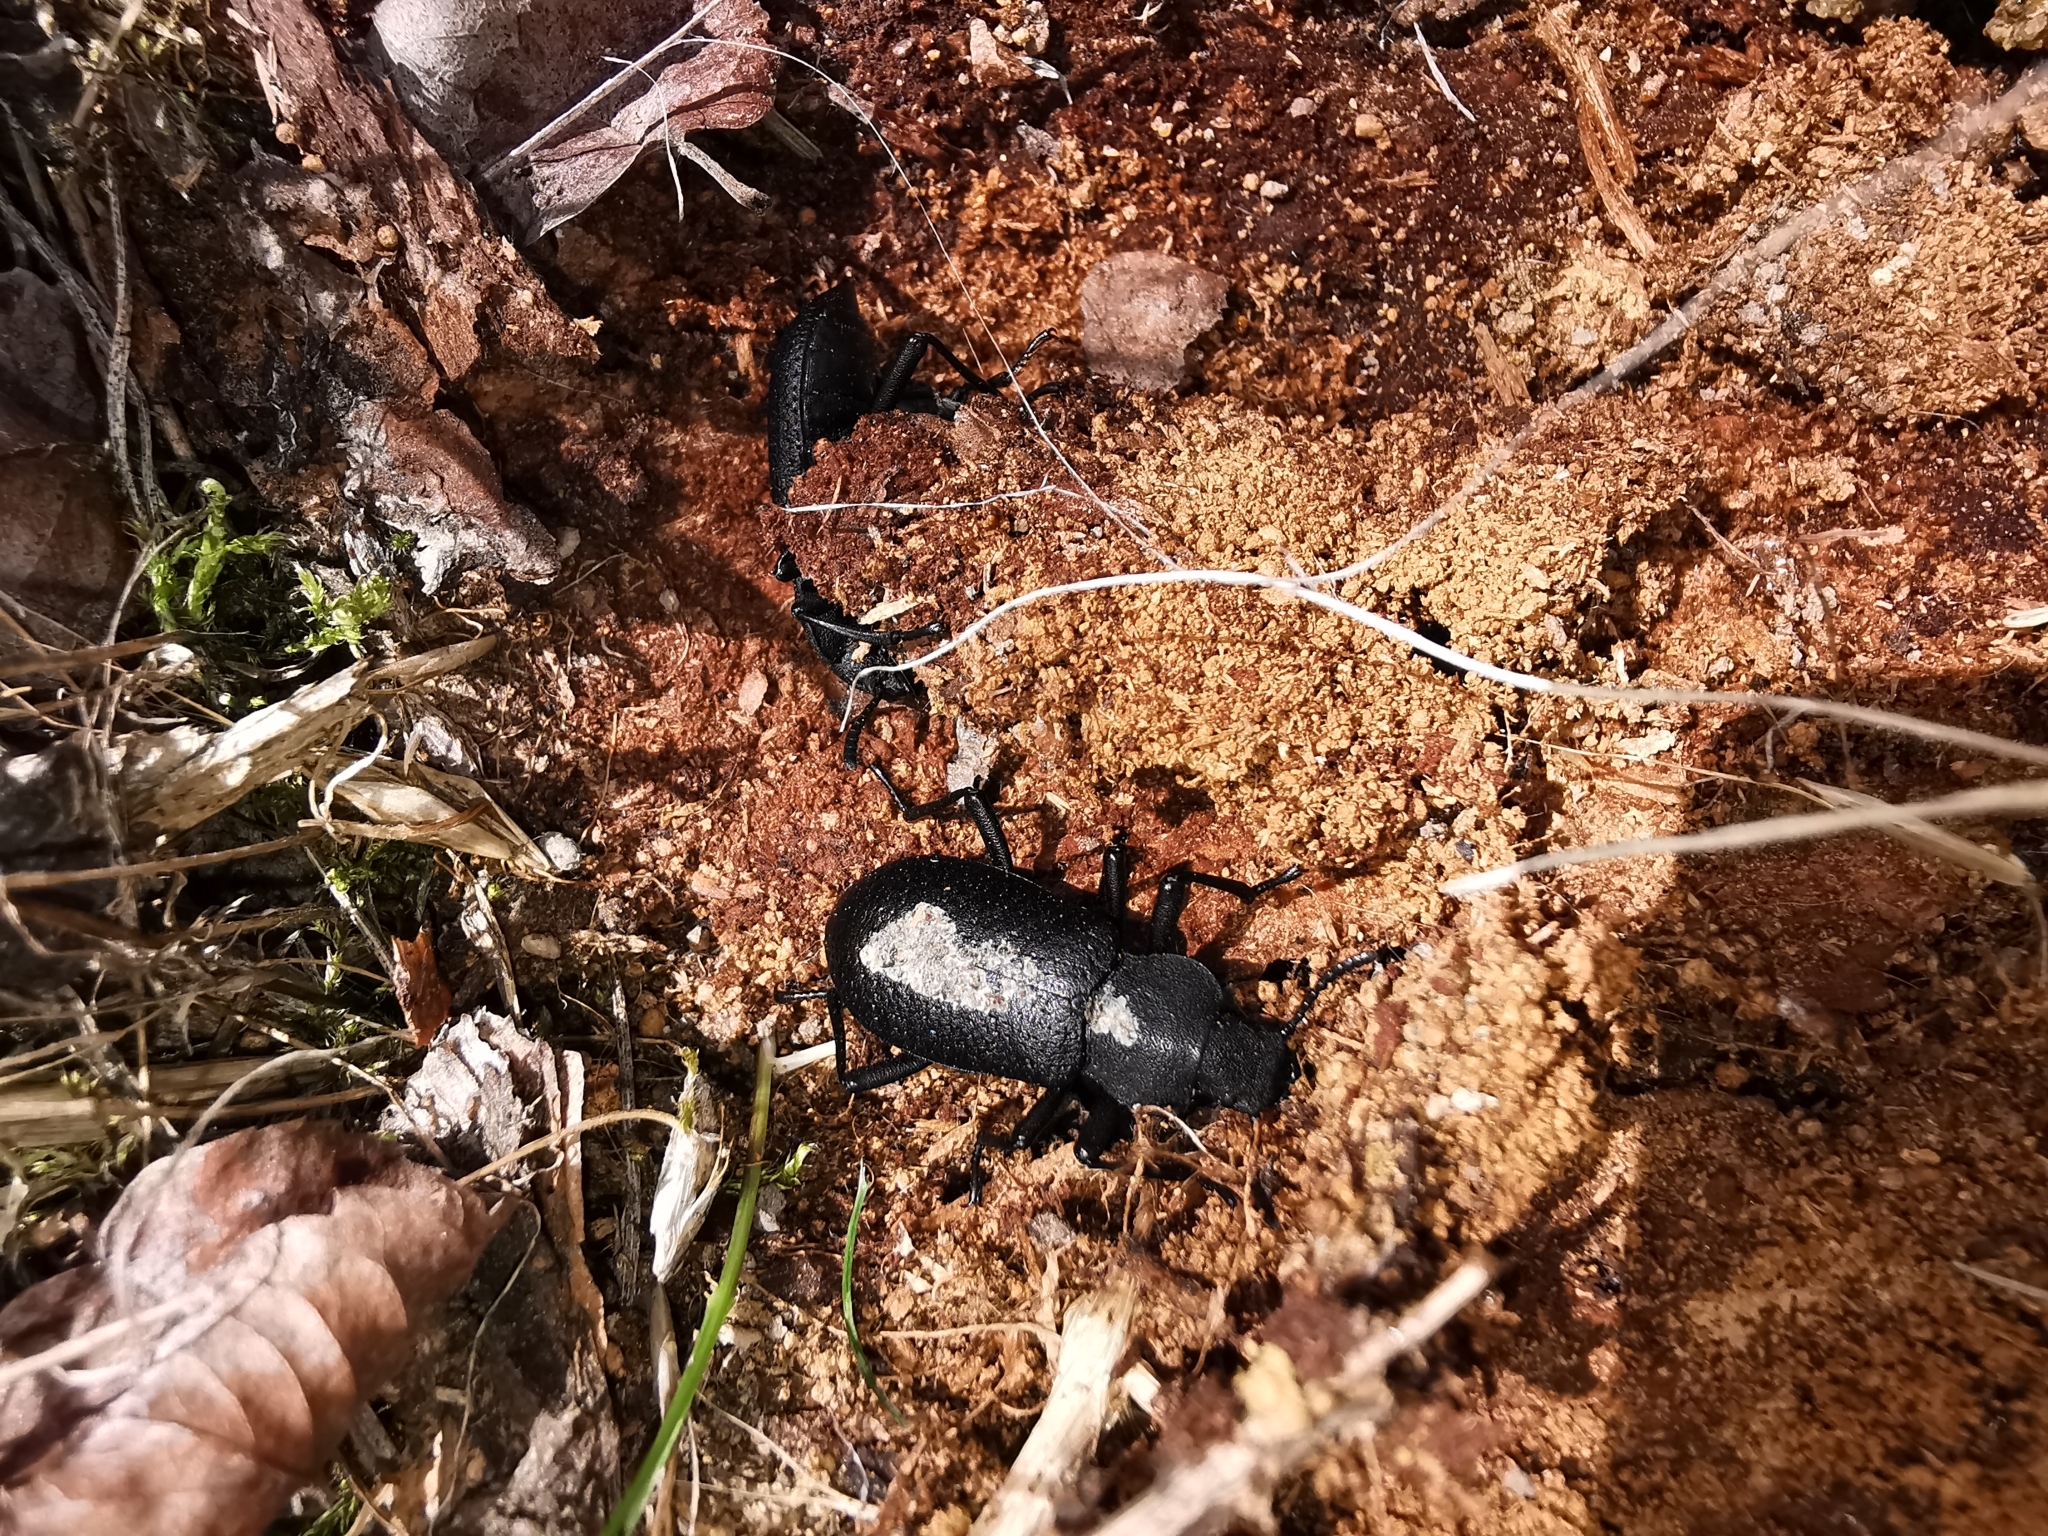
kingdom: Animalia
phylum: Arthropoda
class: Insecta
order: Coleoptera
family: Tenebrionidae
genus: Iphthiminus
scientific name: Iphthiminus serratus
